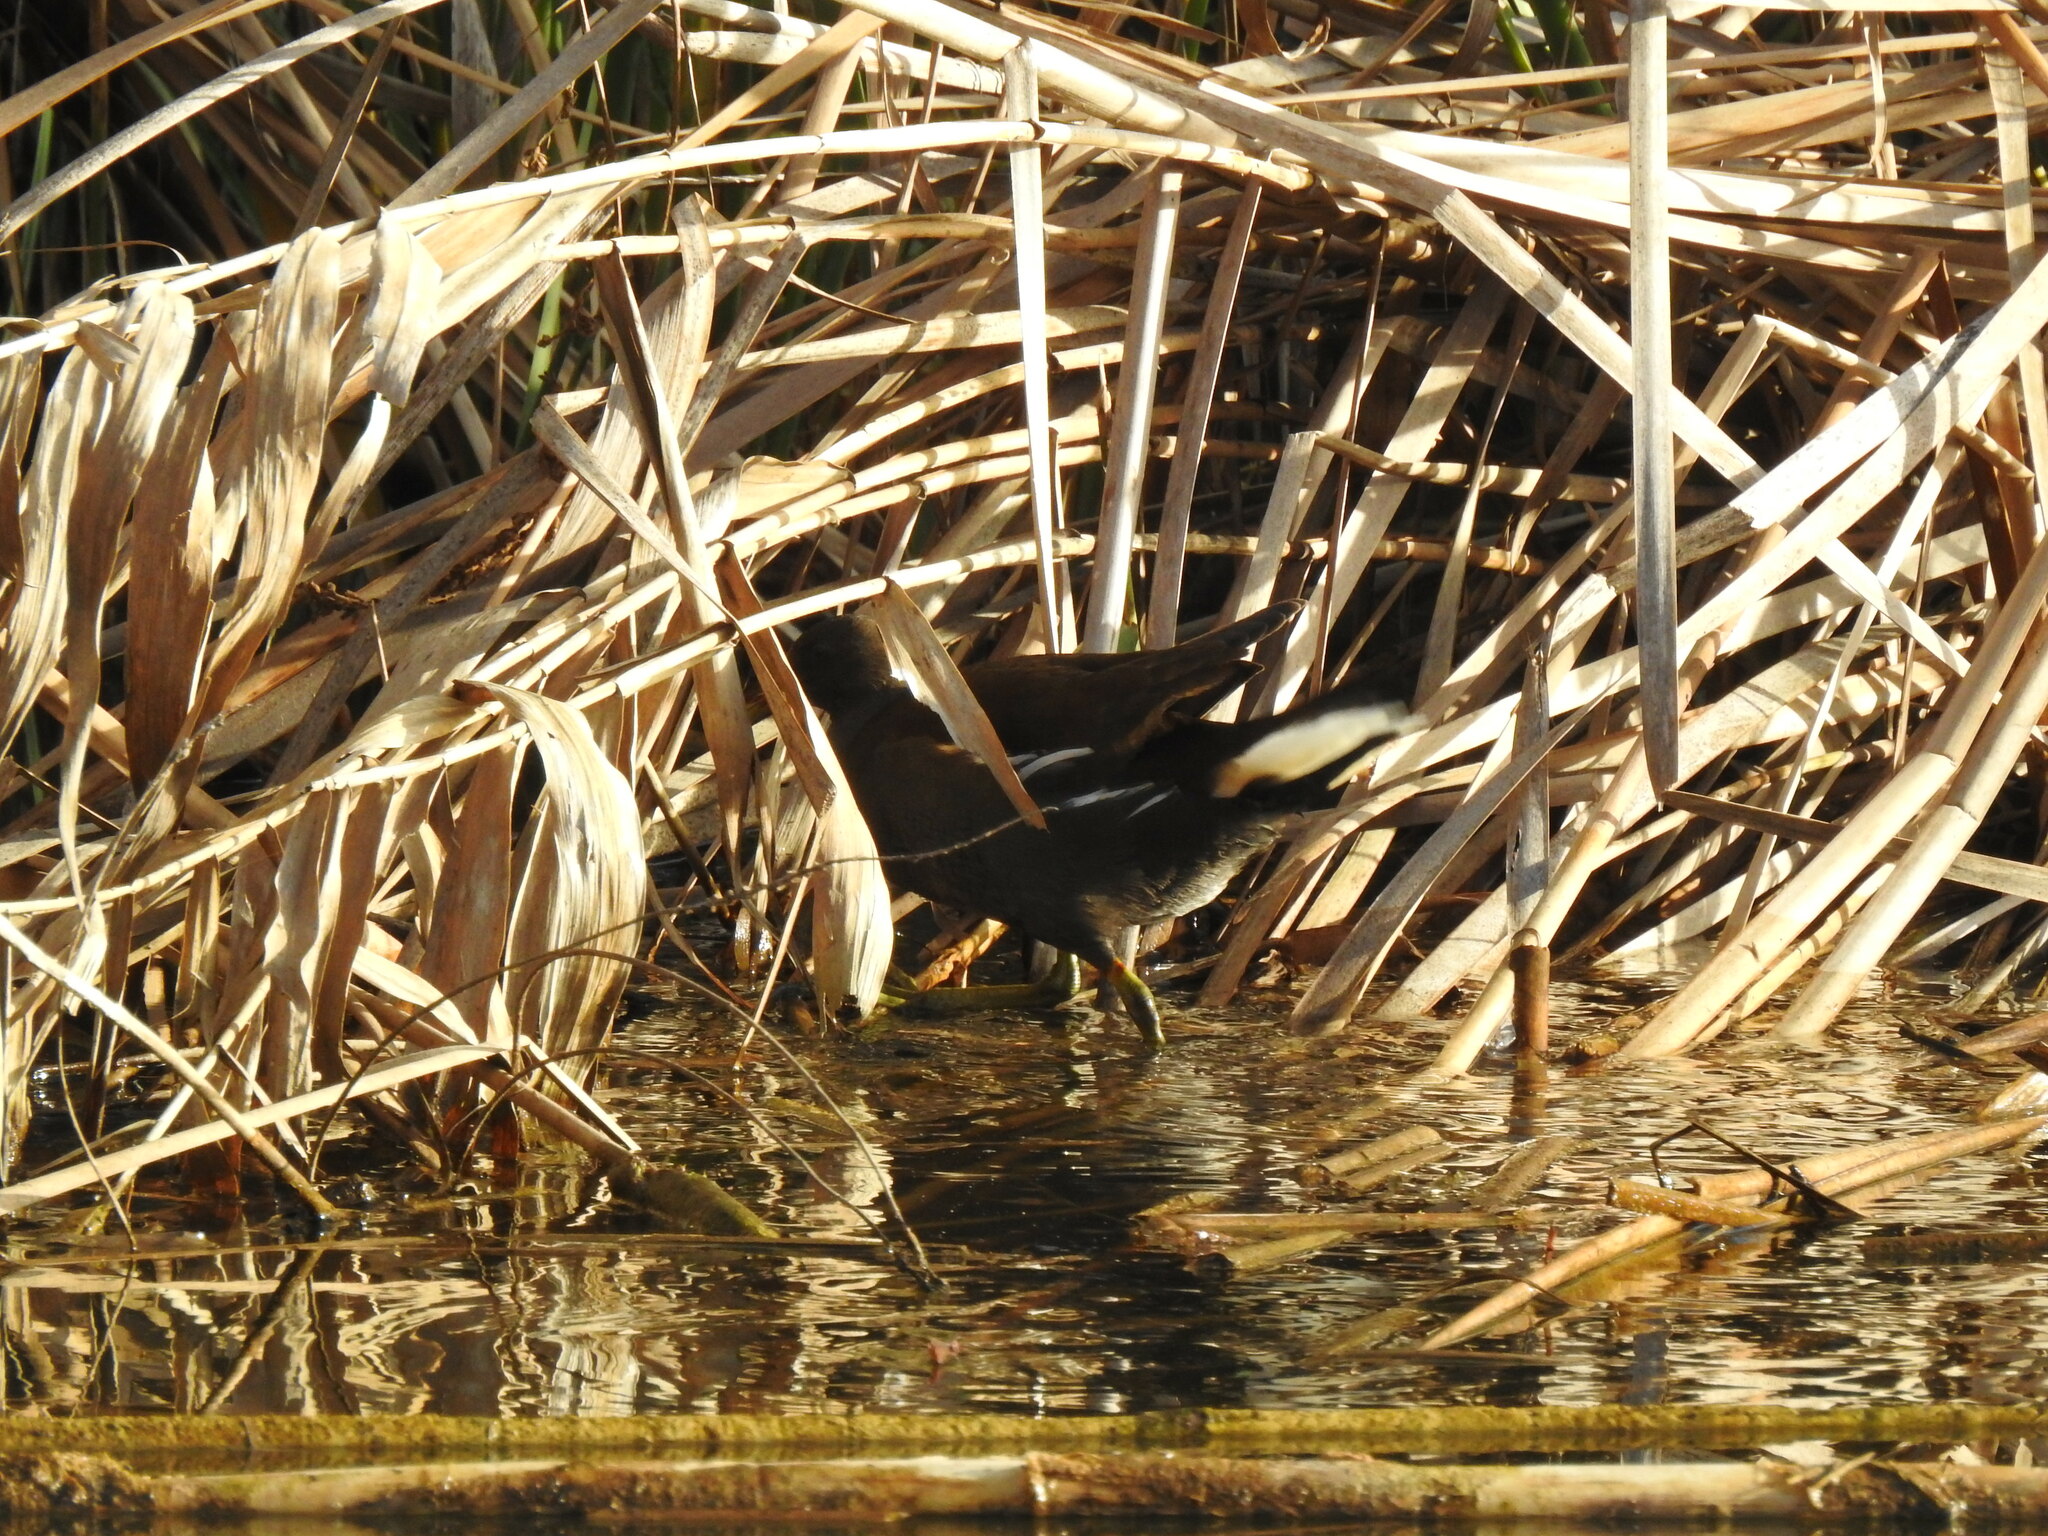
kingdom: Animalia
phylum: Chordata
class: Aves
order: Gruiformes
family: Rallidae
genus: Gallinula
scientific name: Gallinula chloropus
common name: Common moorhen
